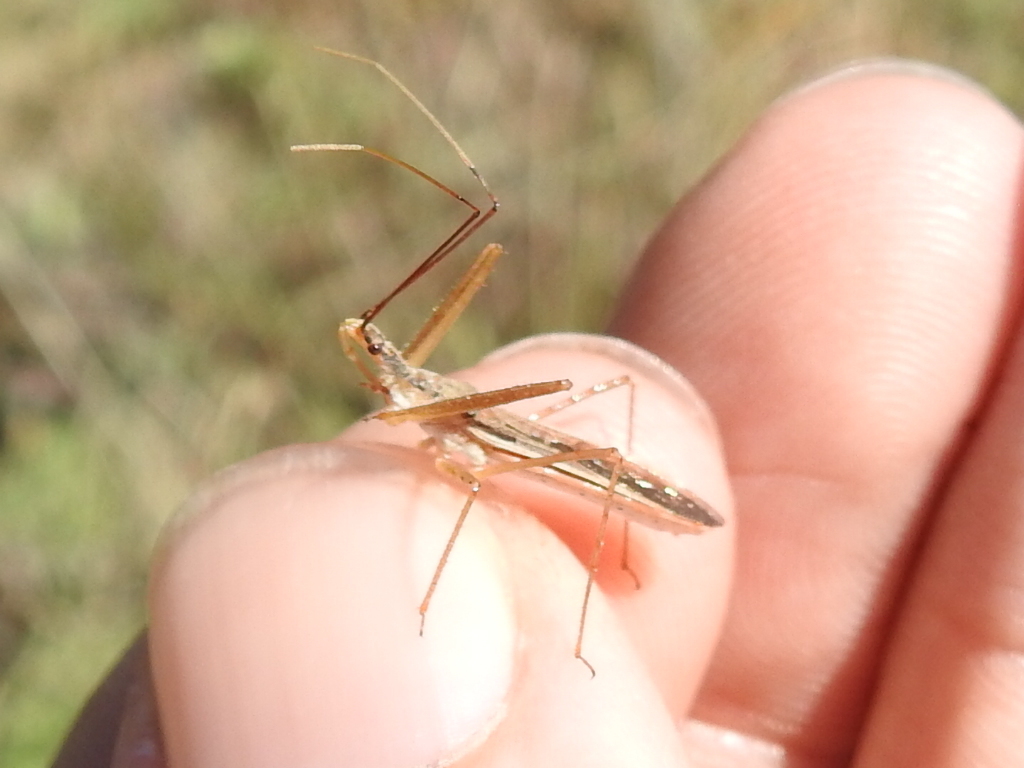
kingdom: Animalia
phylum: Arthropoda
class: Insecta
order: Hemiptera
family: Reduviidae
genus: Zelus
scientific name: Zelus cervicalis
